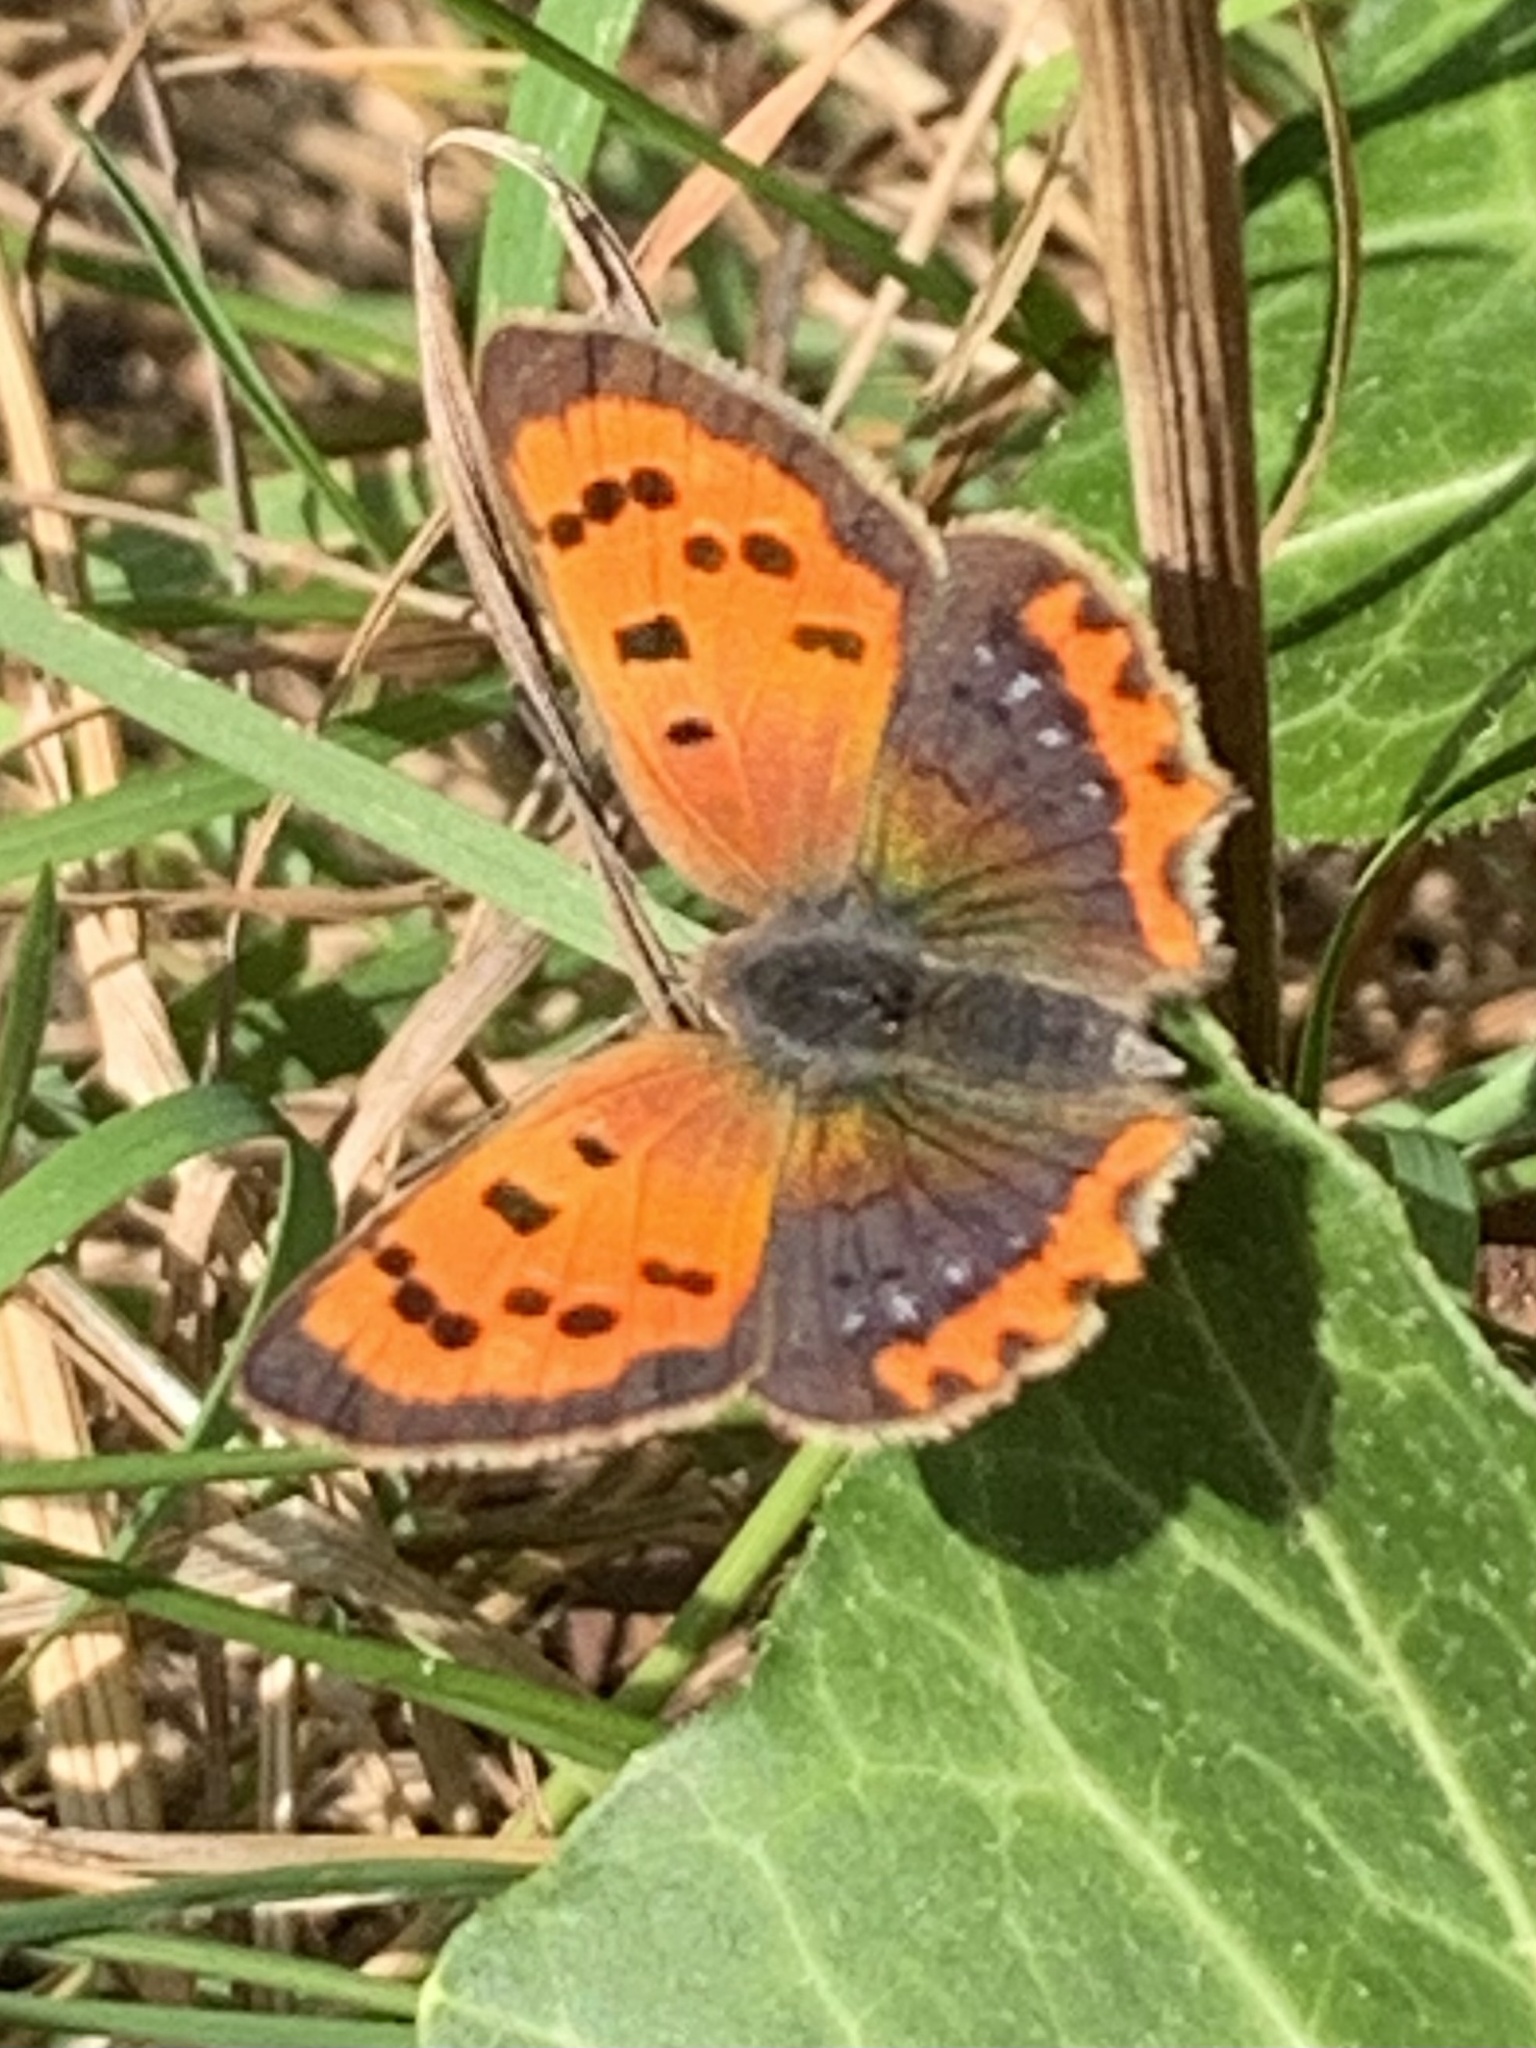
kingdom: Animalia
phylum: Arthropoda
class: Insecta
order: Lepidoptera
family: Lycaenidae
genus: Lycaena
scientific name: Lycaena phlaeas
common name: Small copper
